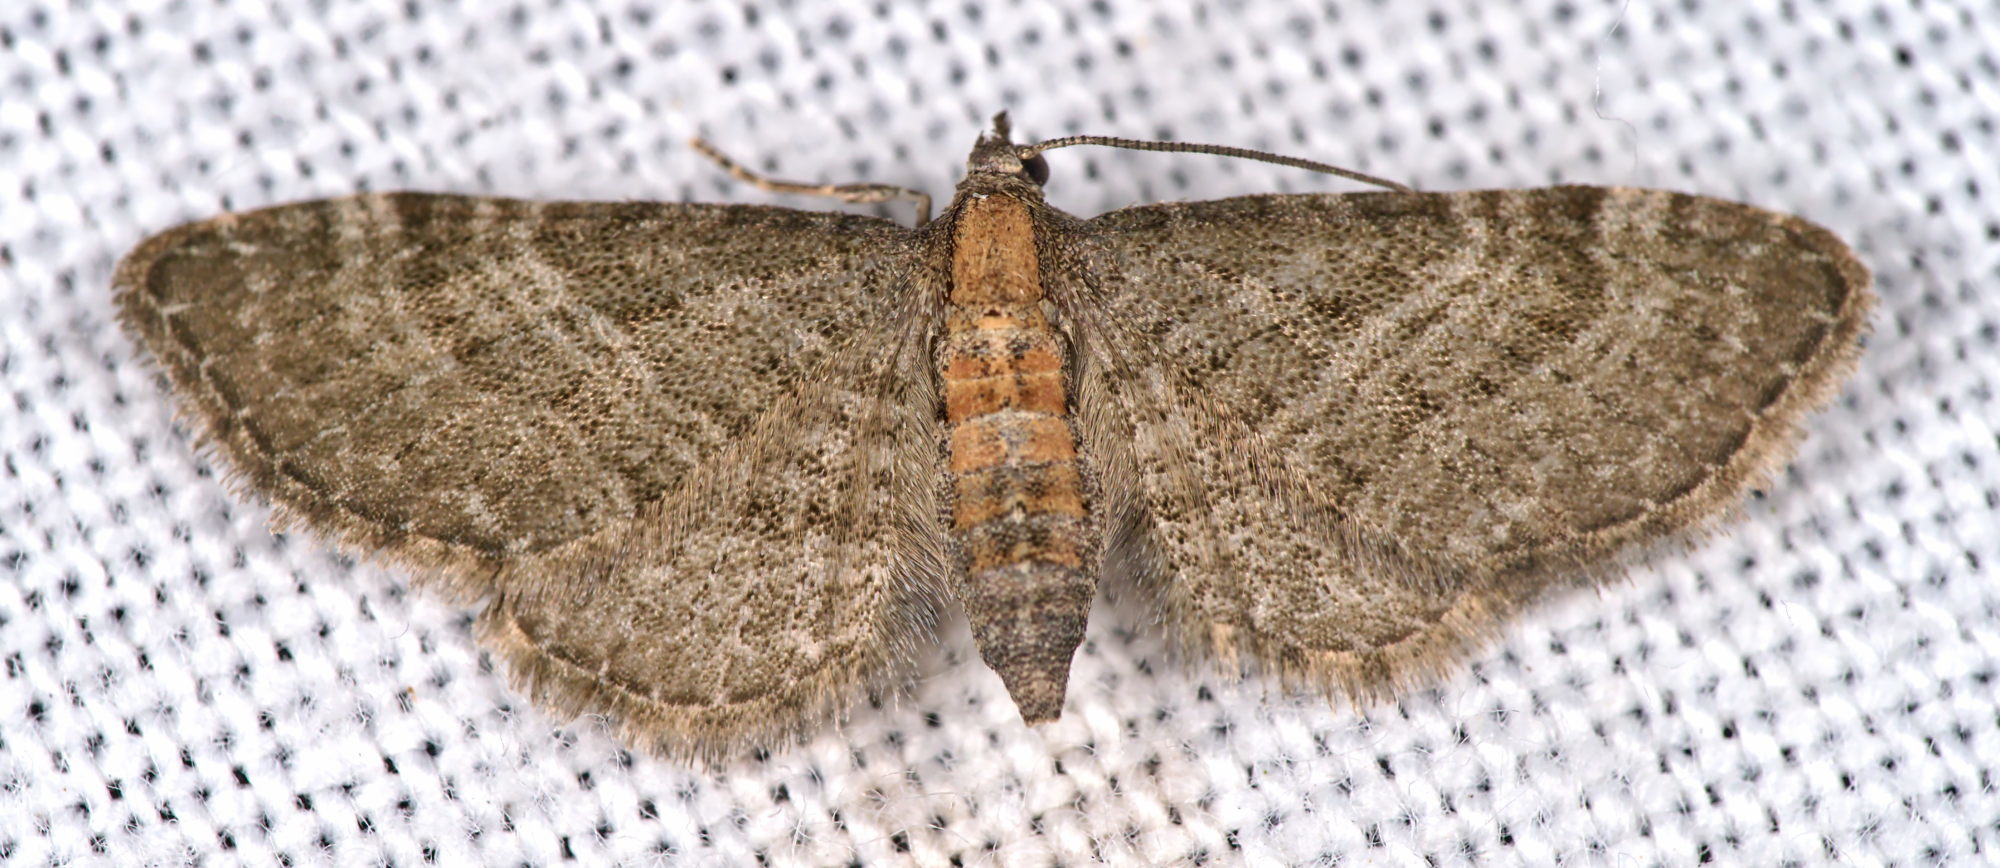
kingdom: Animalia
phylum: Arthropoda
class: Insecta
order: Lepidoptera
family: Geometridae
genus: Eupithecia
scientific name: Eupithecia haworthiata
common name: Haworth's pug
